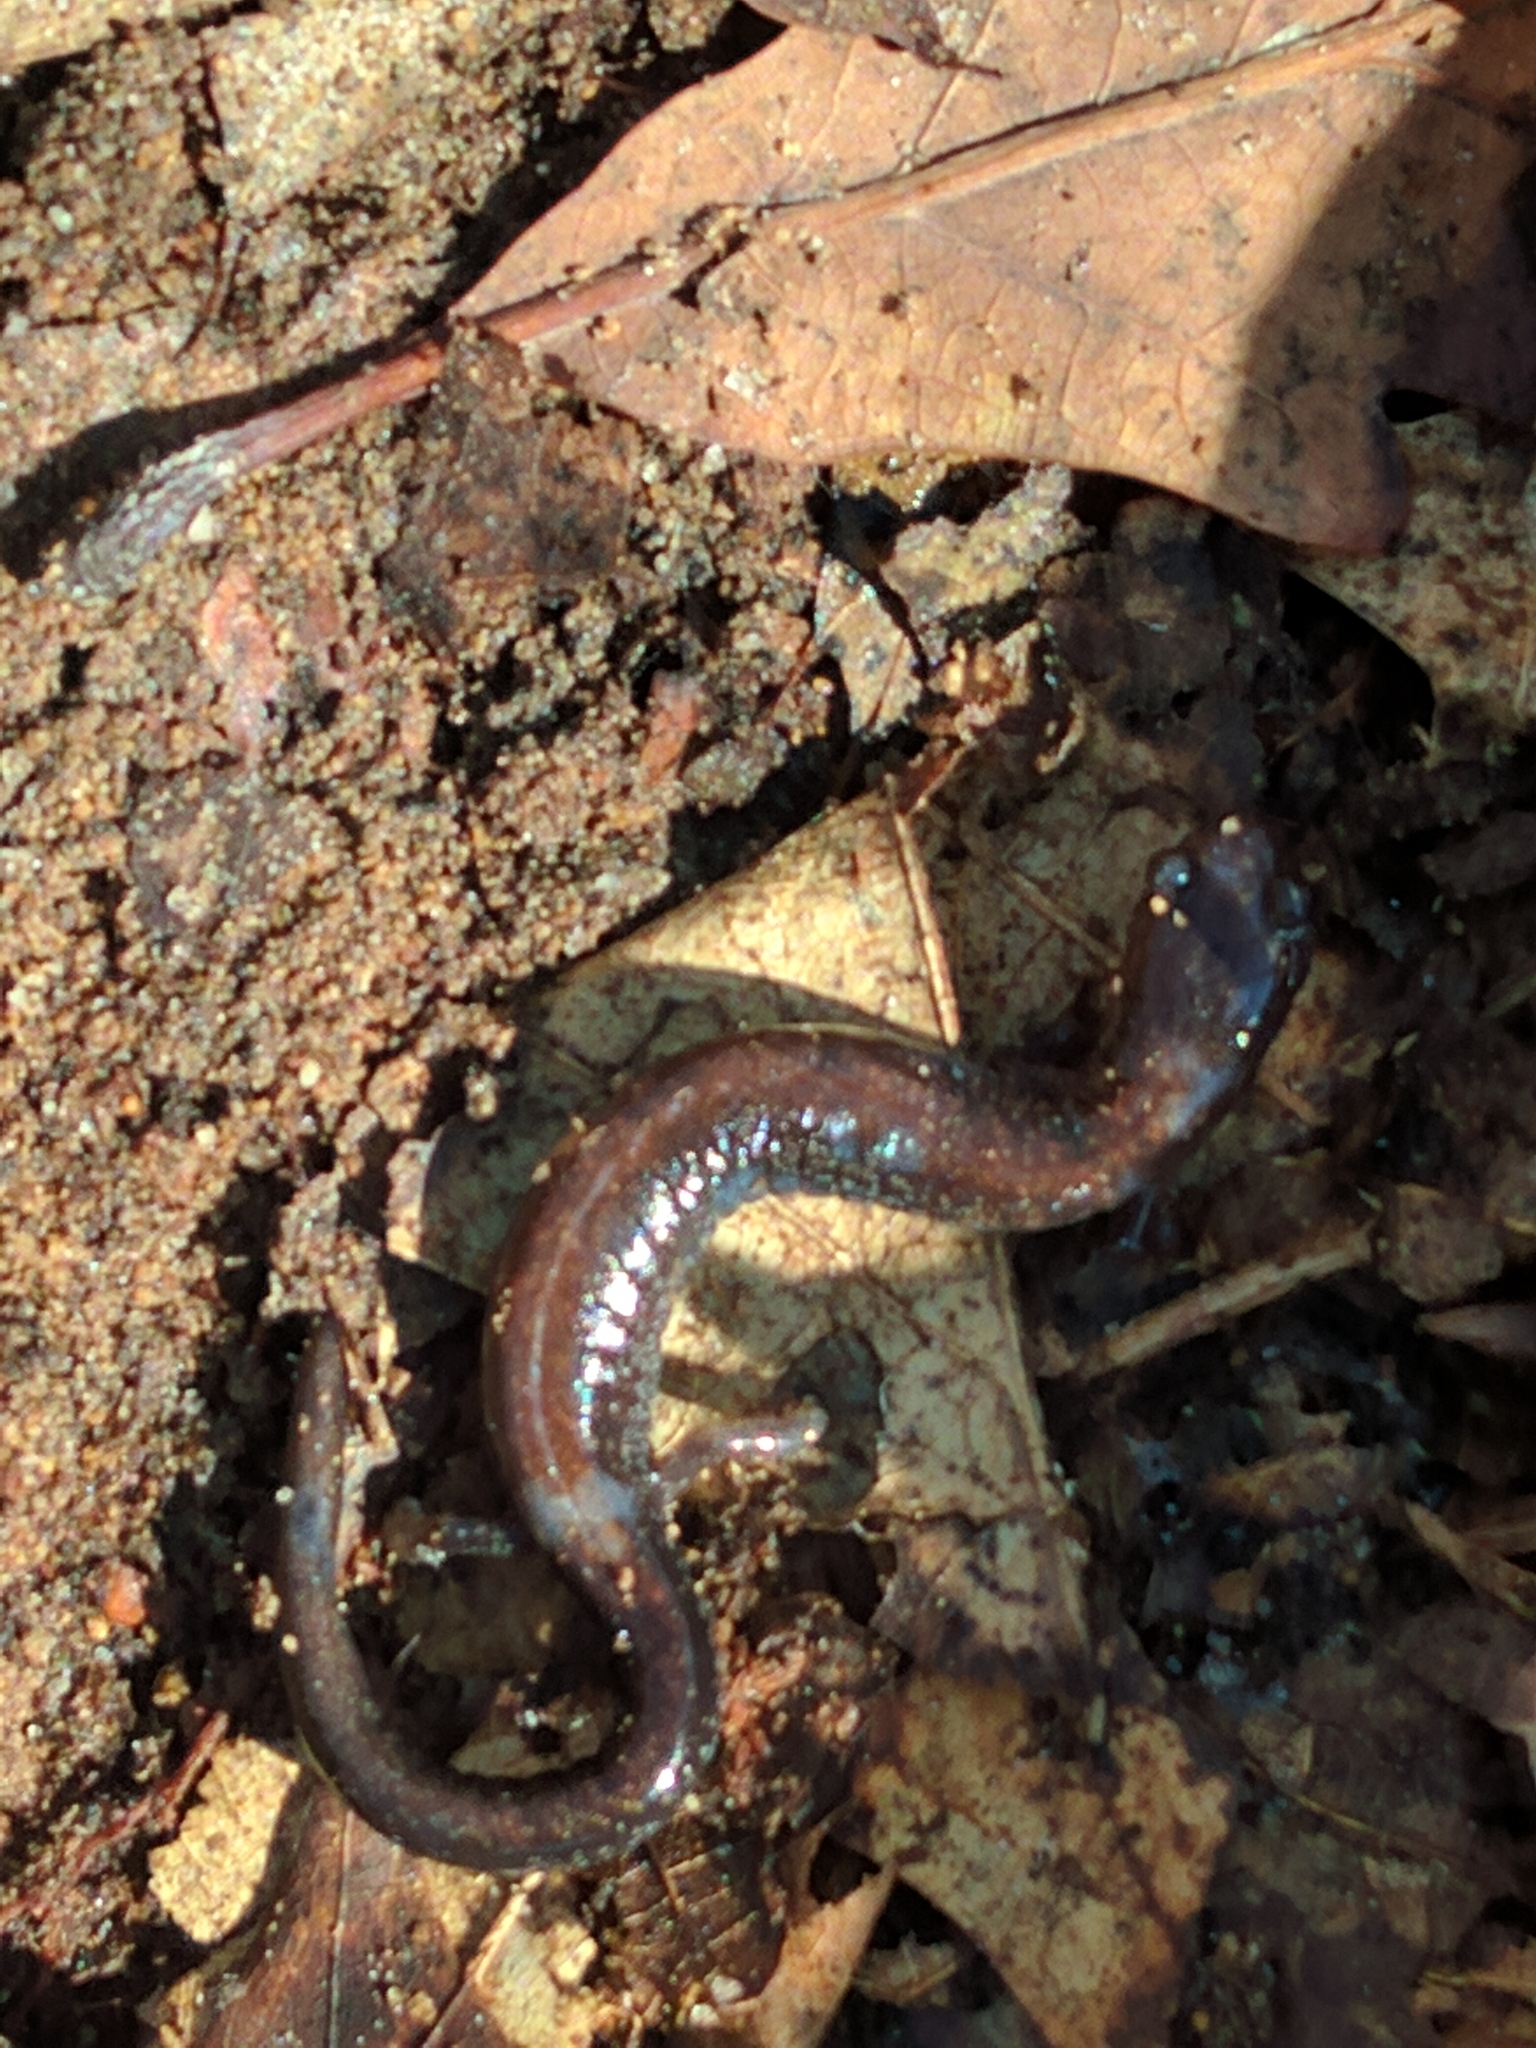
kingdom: Animalia
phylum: Chordata
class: Amphibia
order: Caudata
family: Plethodontidae
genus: Plethodon
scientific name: Plethodon cinereus
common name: Redback salamander
